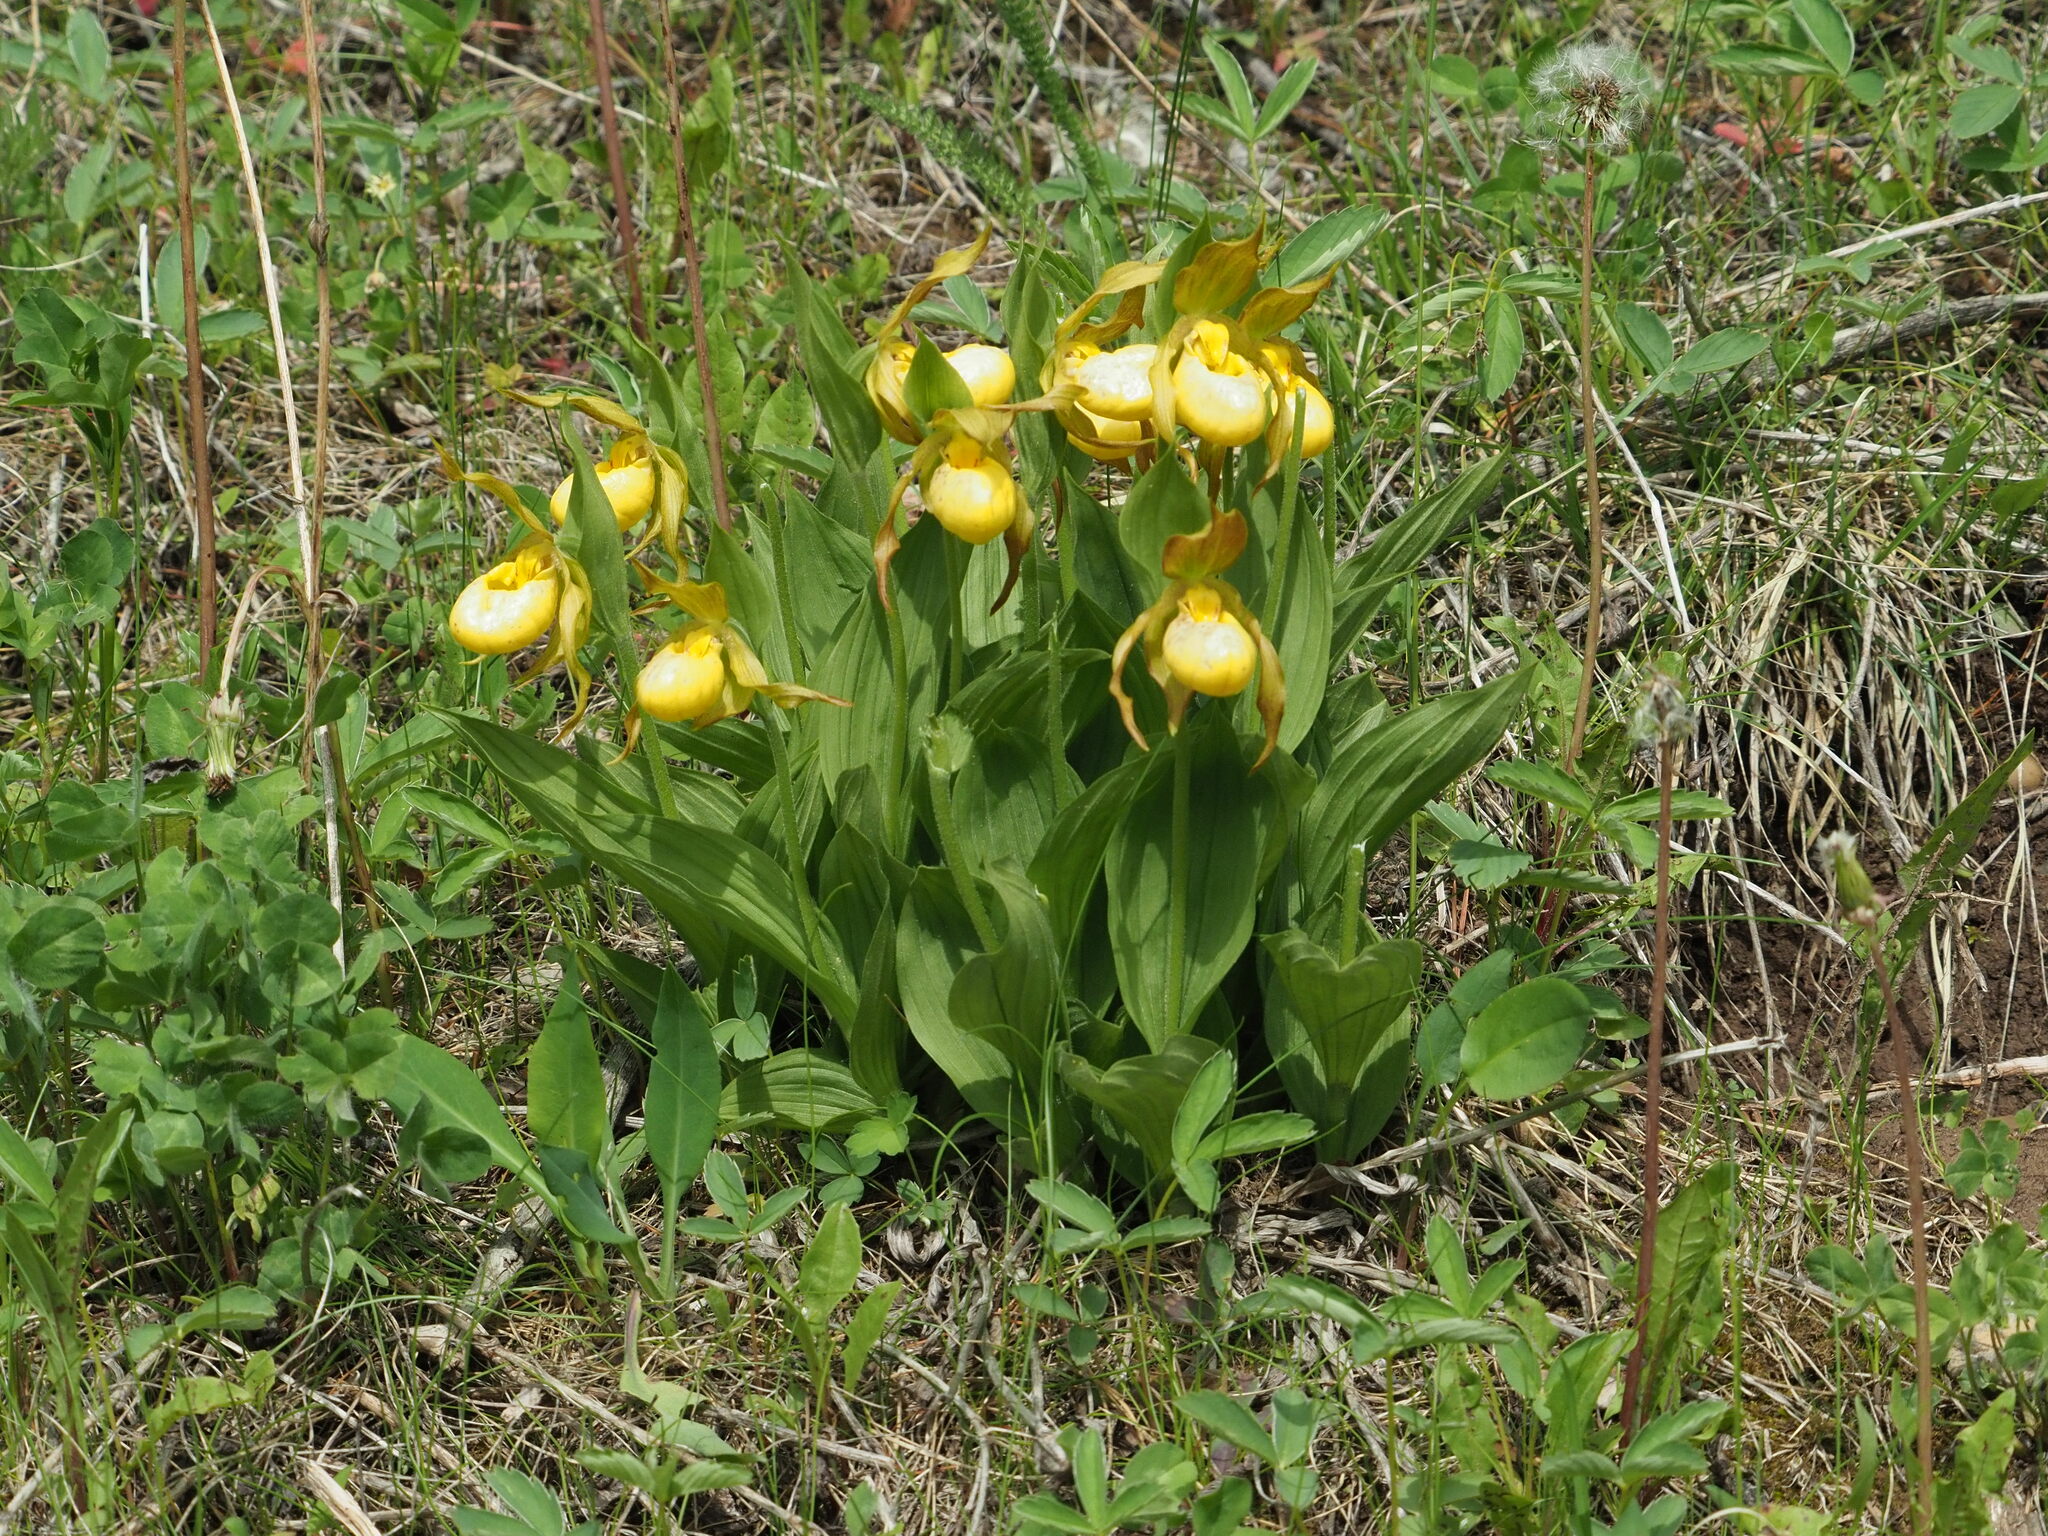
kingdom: Plantae
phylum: Tracheophyta
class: Liliopsida
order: Asparagales
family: Orchidaceae
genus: Cypripedium
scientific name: Cypripedium parviflorum
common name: American yellow lady's-slipper
